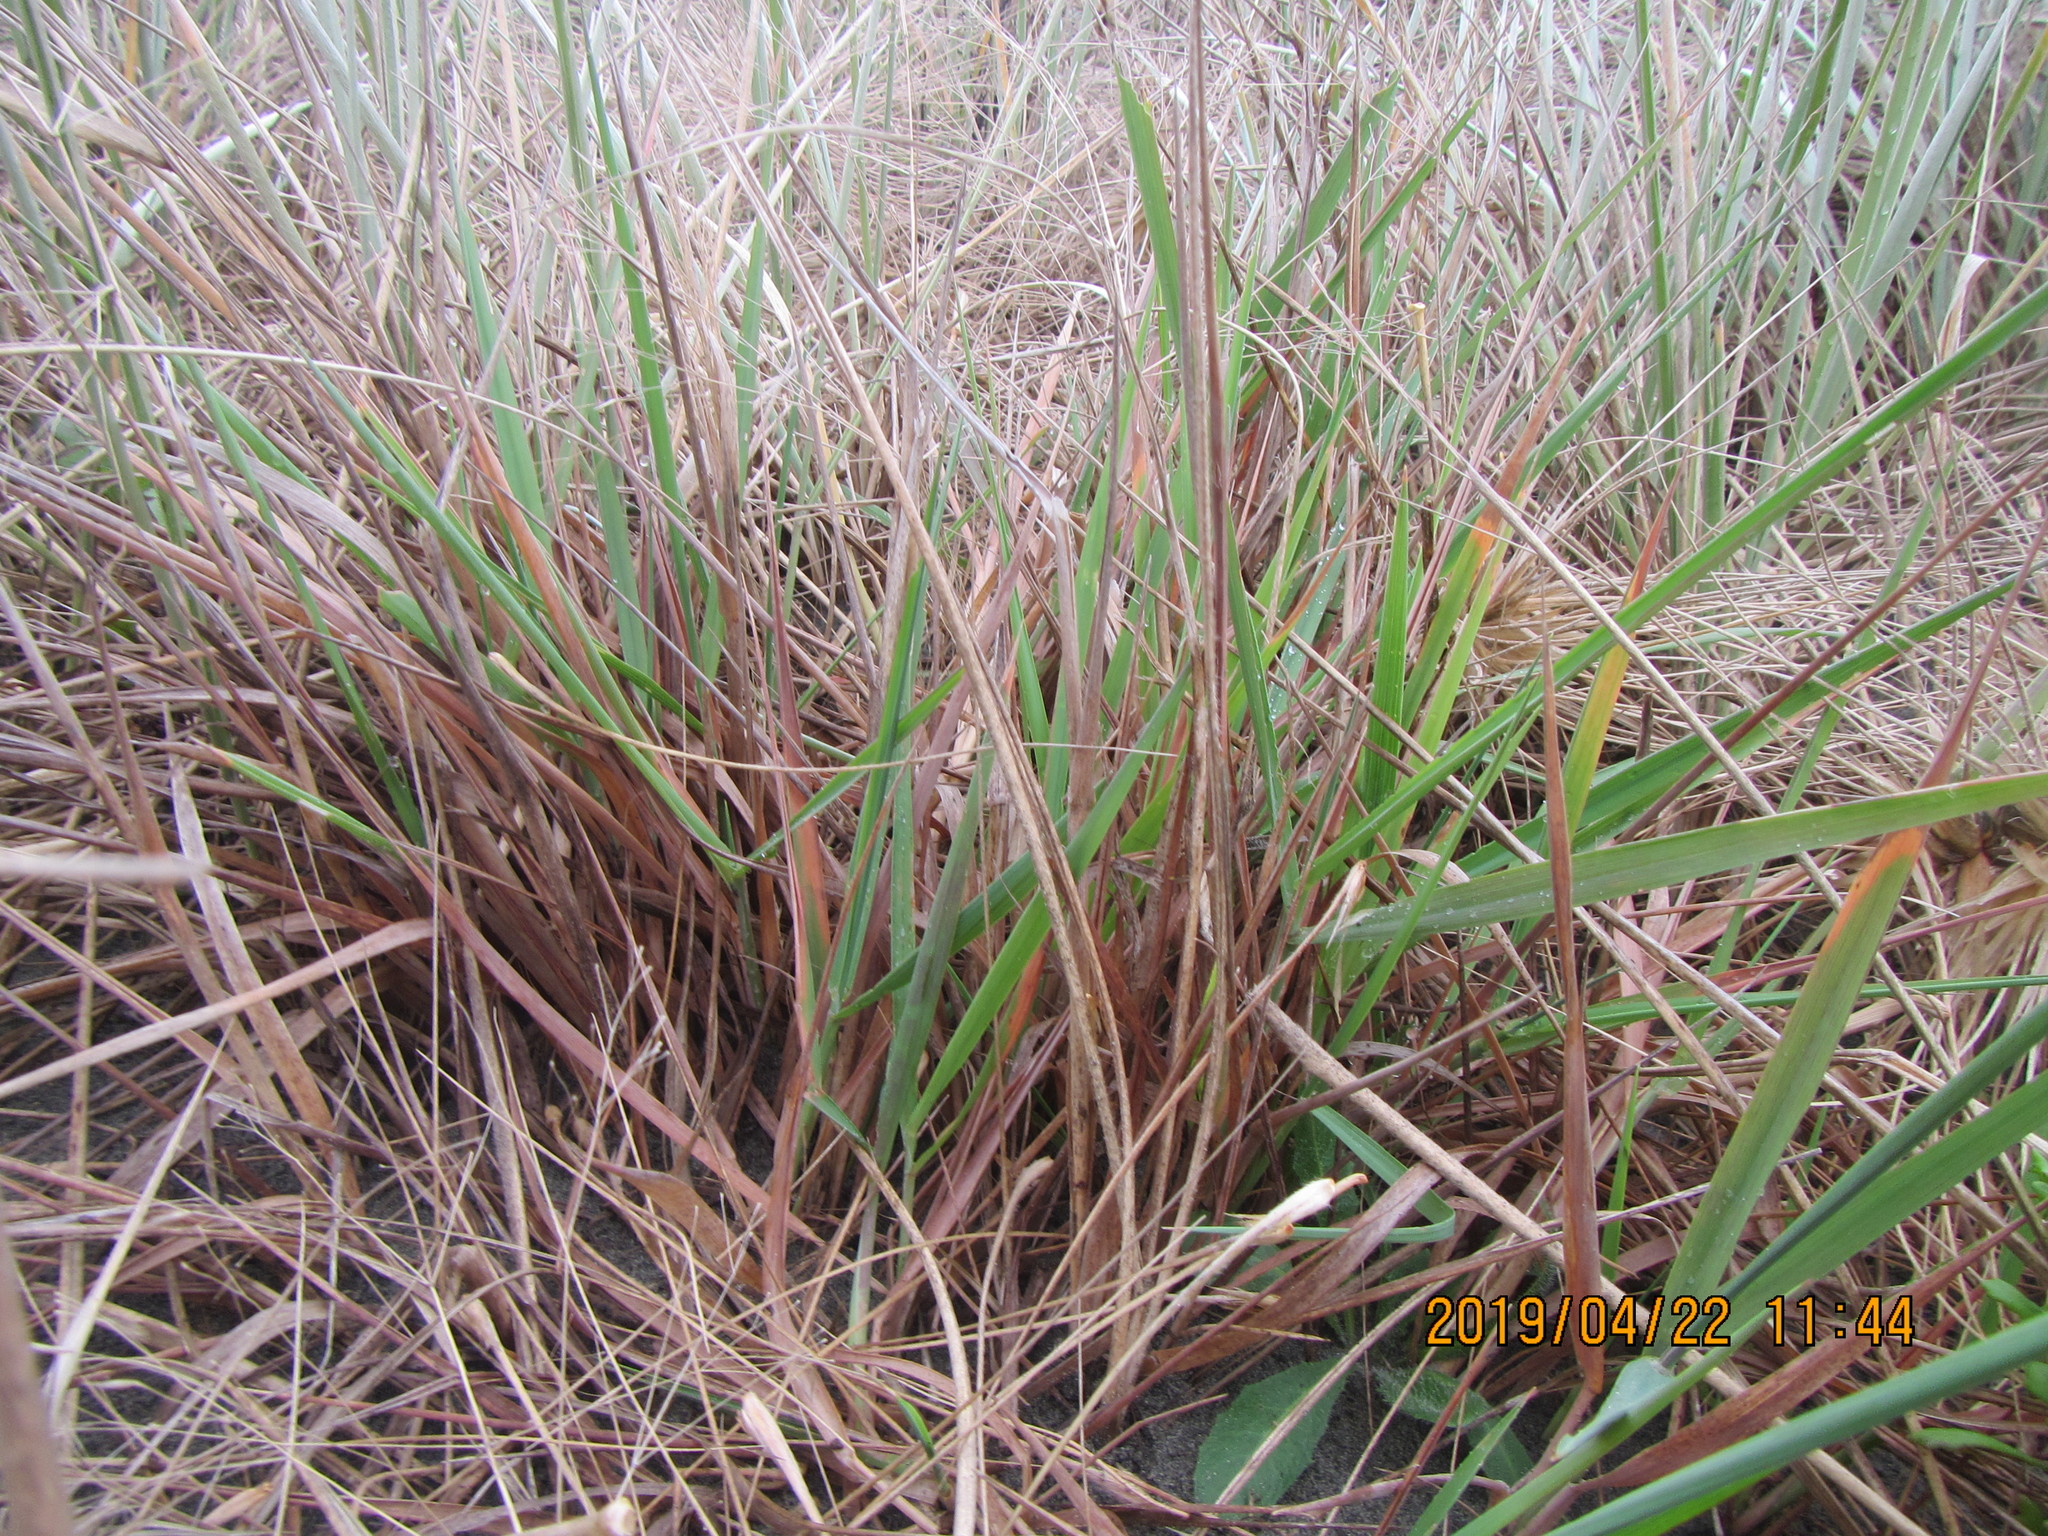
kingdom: Plantae
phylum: Tracheophyta
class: Liliopsida
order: Poales
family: Poaceae
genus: Lachnagrostis
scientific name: Lachnagrostis billardierei
